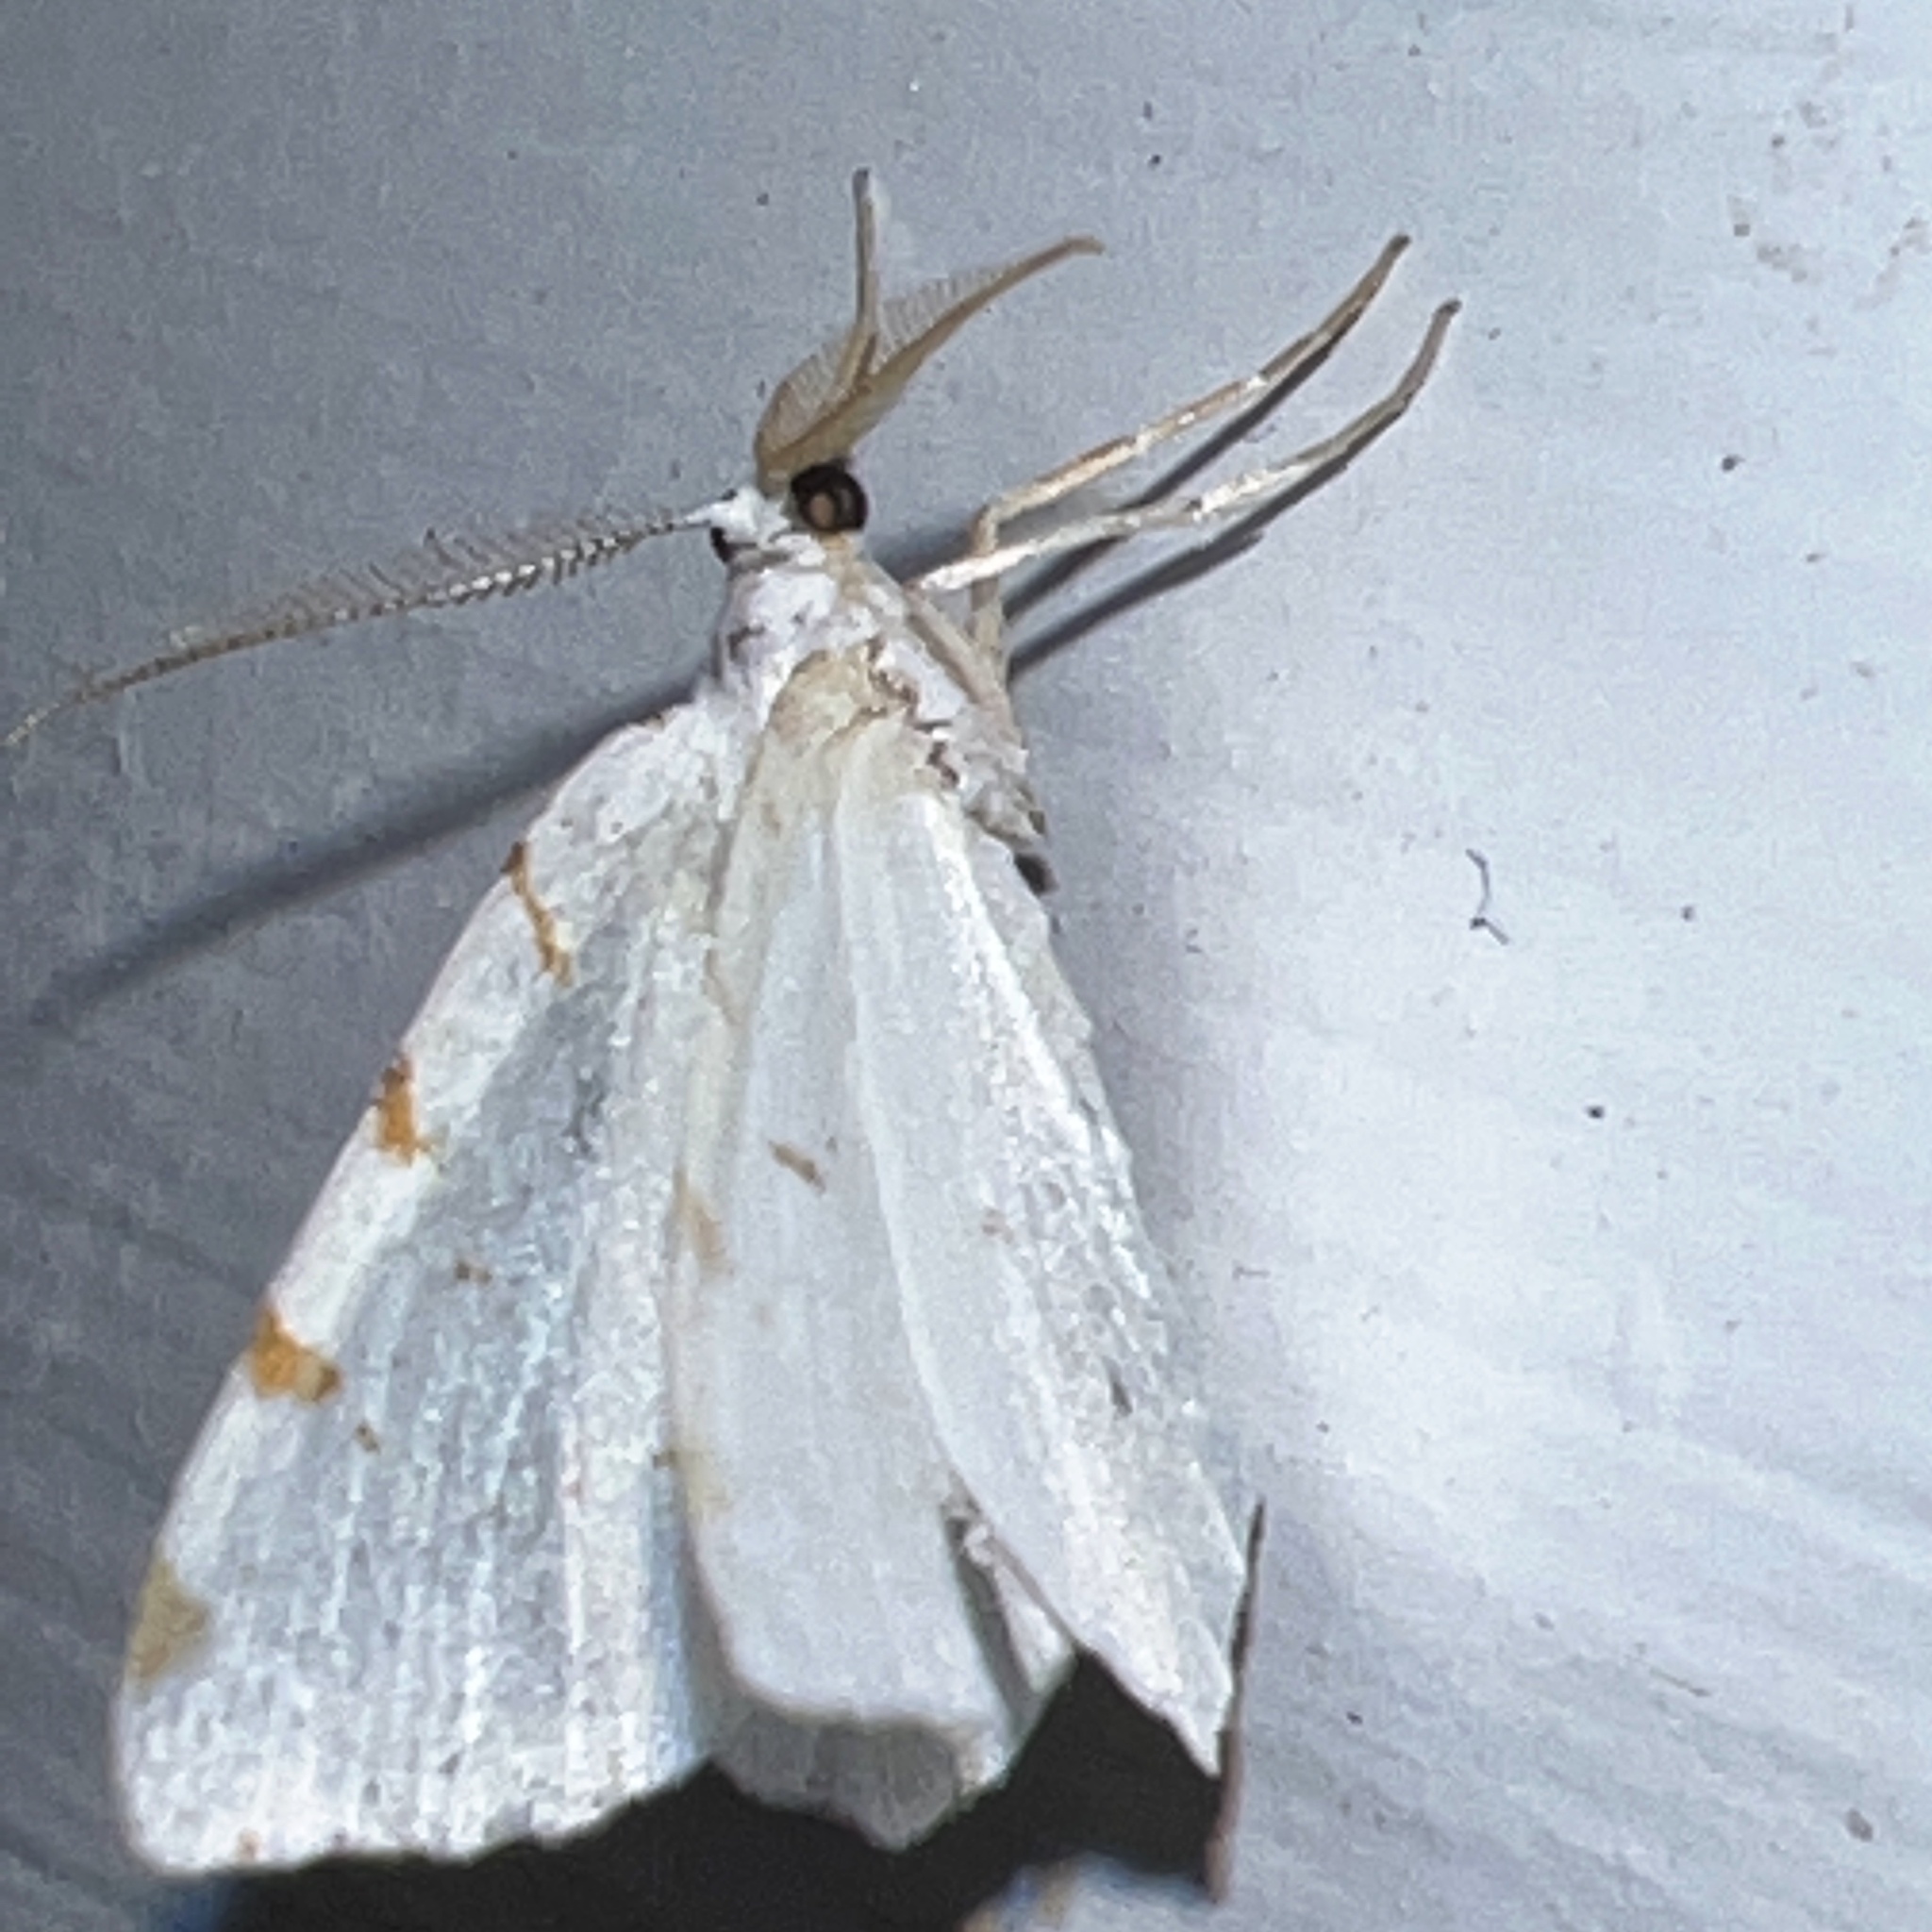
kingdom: Animalia
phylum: Arthropoda
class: Insecta
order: Lepidoptera
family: Geometridae
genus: Macaria
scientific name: Macaria pustularia
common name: Lesser maple spanworm moth
